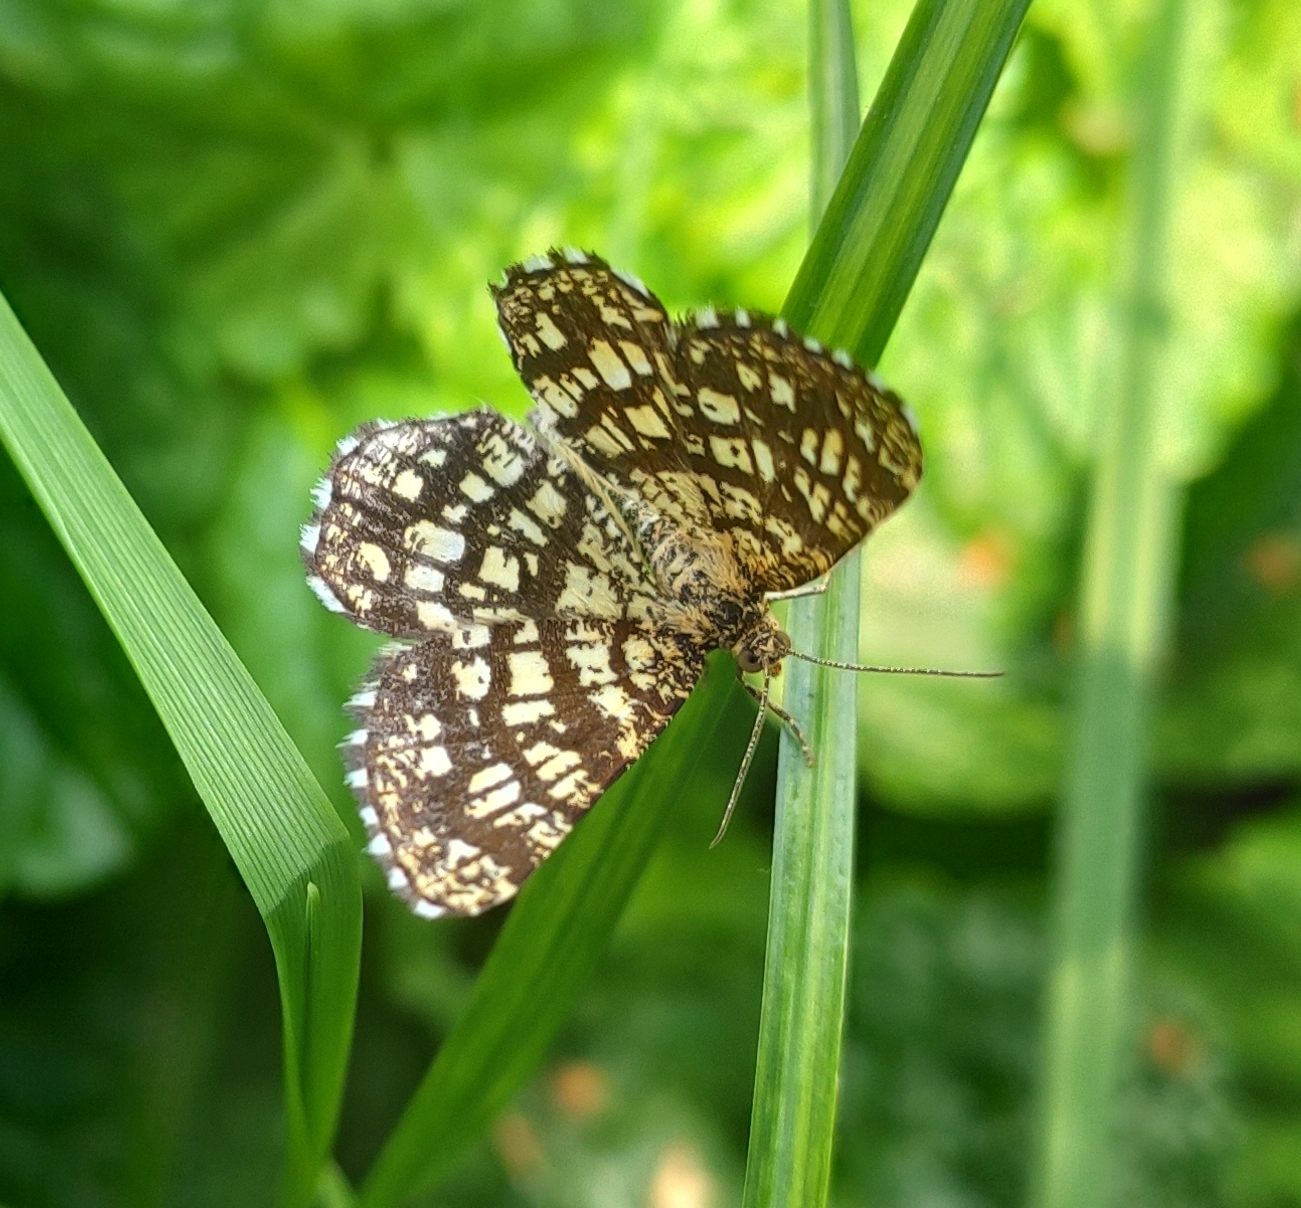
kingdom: Animalia
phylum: Arthropoda
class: Insecta
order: Lepidoptera
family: Geometridae
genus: Chiasmia
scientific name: Chiasmia clathrata
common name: Latticed heath
